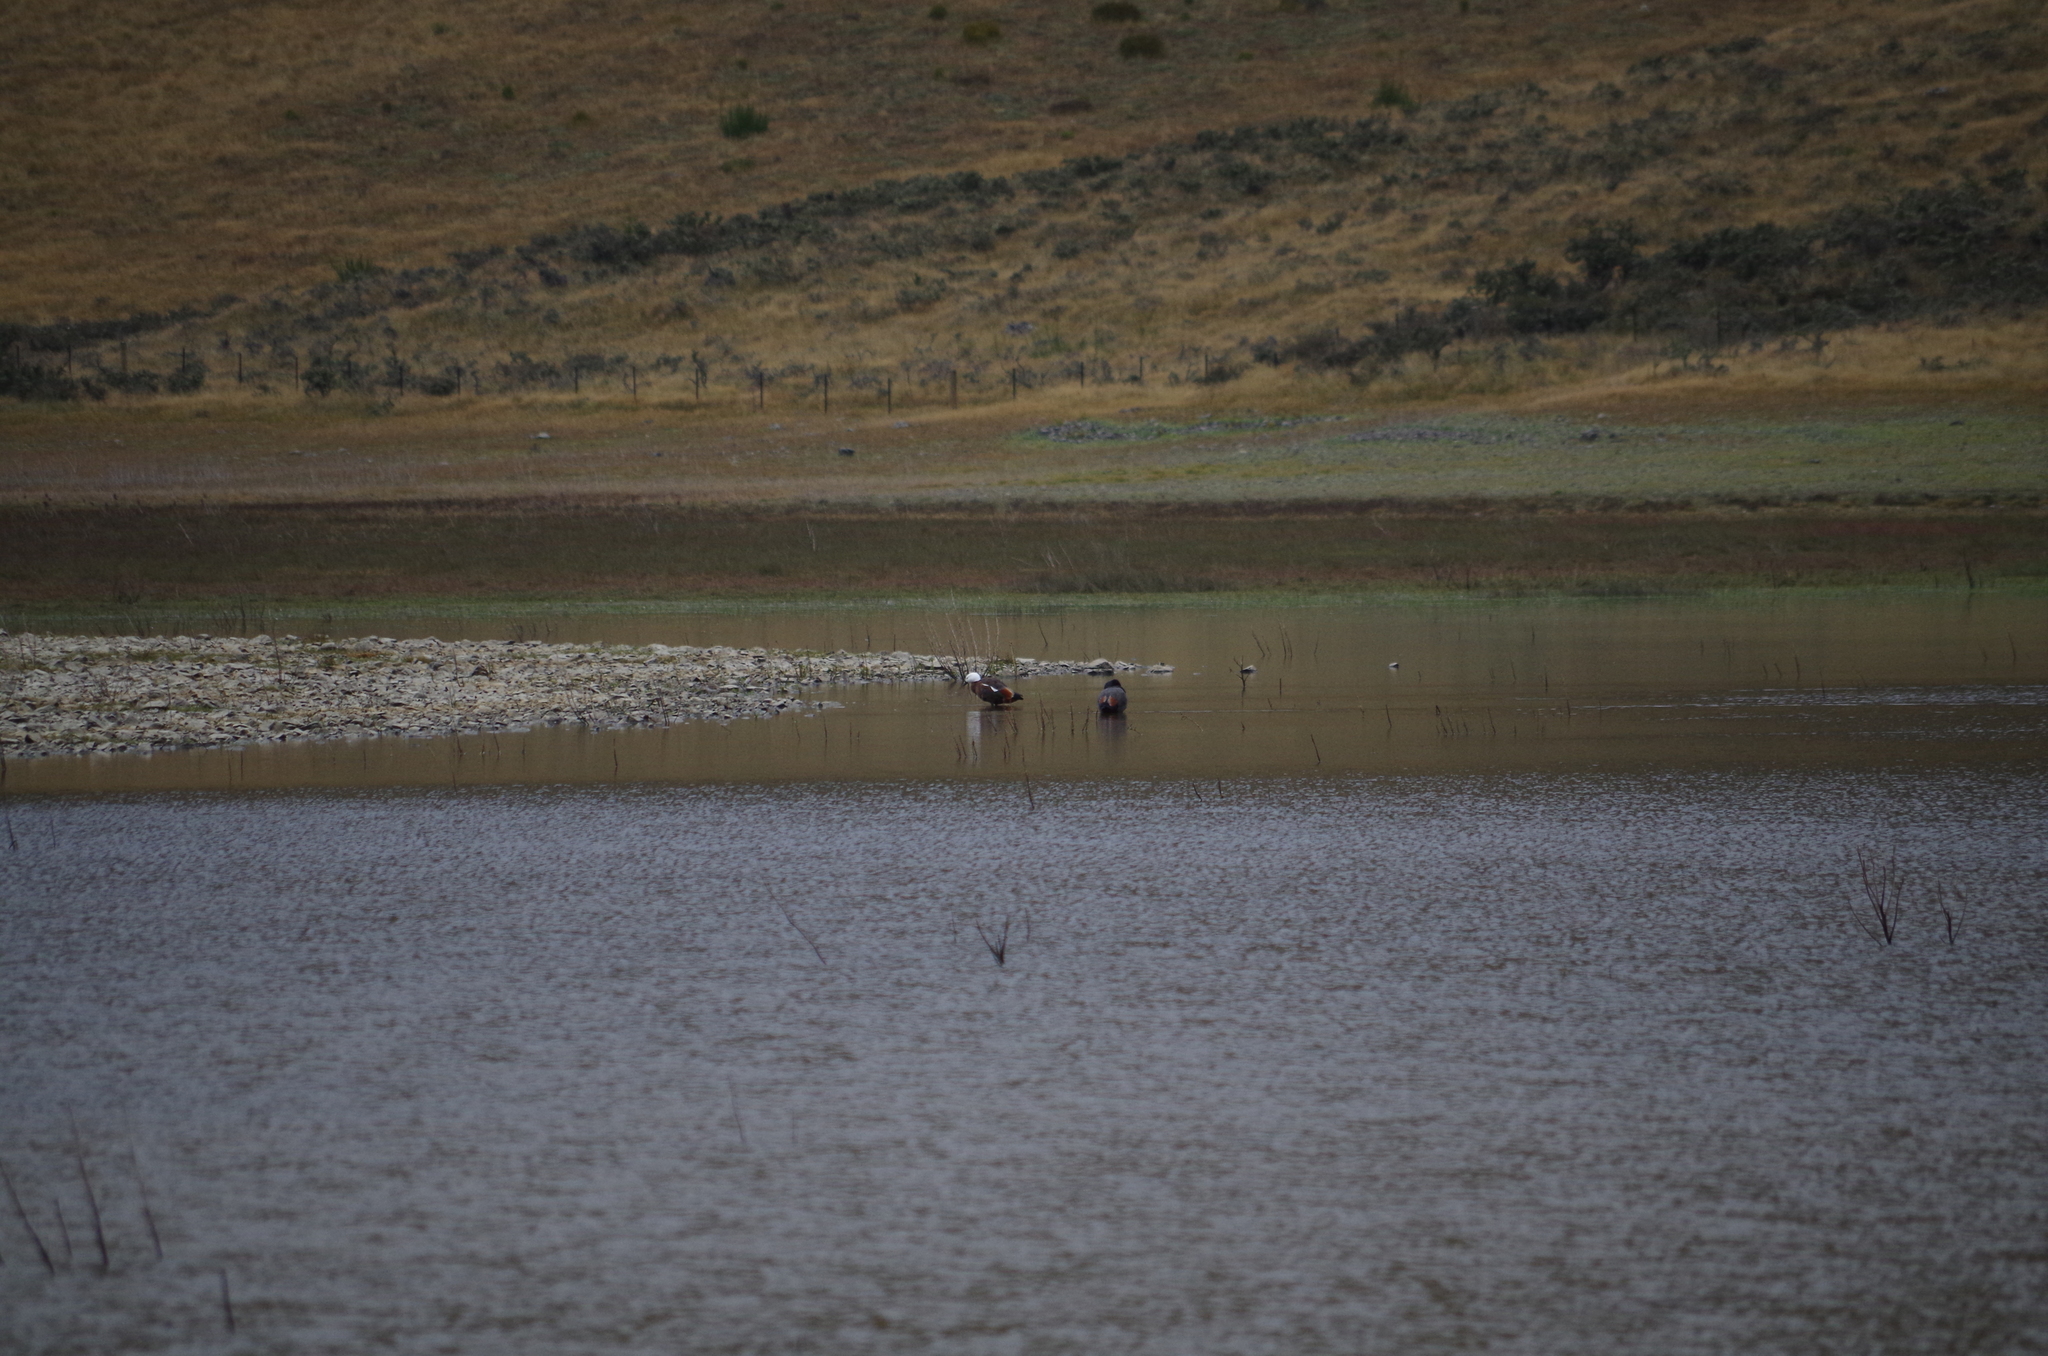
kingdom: Animalia
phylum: Chordata
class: Aves
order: Anseriformes
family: Anatidae
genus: Tadorna
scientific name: Tadorna variegata
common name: Paradise shelduck
